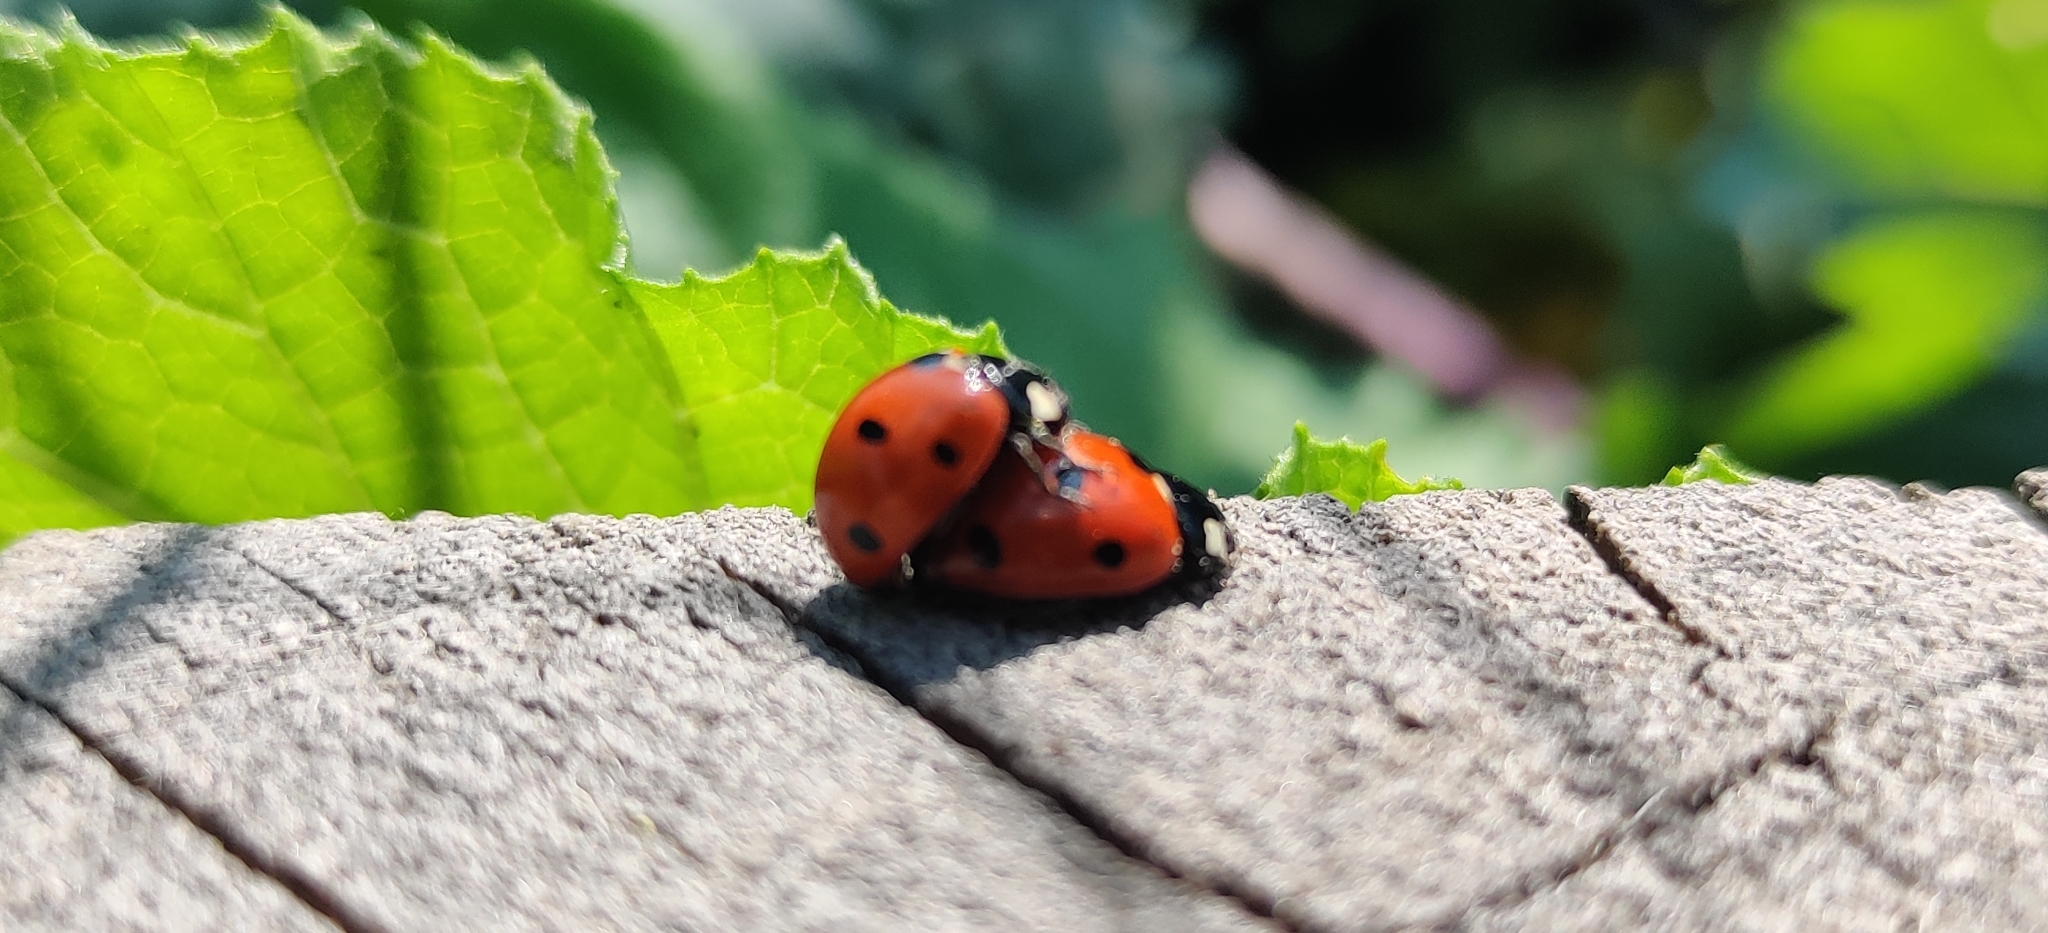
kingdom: Animalia
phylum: Arthropoda
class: Insecta
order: Coleoptera
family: Coccinellidae
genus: Coccinella
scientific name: Coccinella septempunctata
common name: Sevenspotted lady beetle
